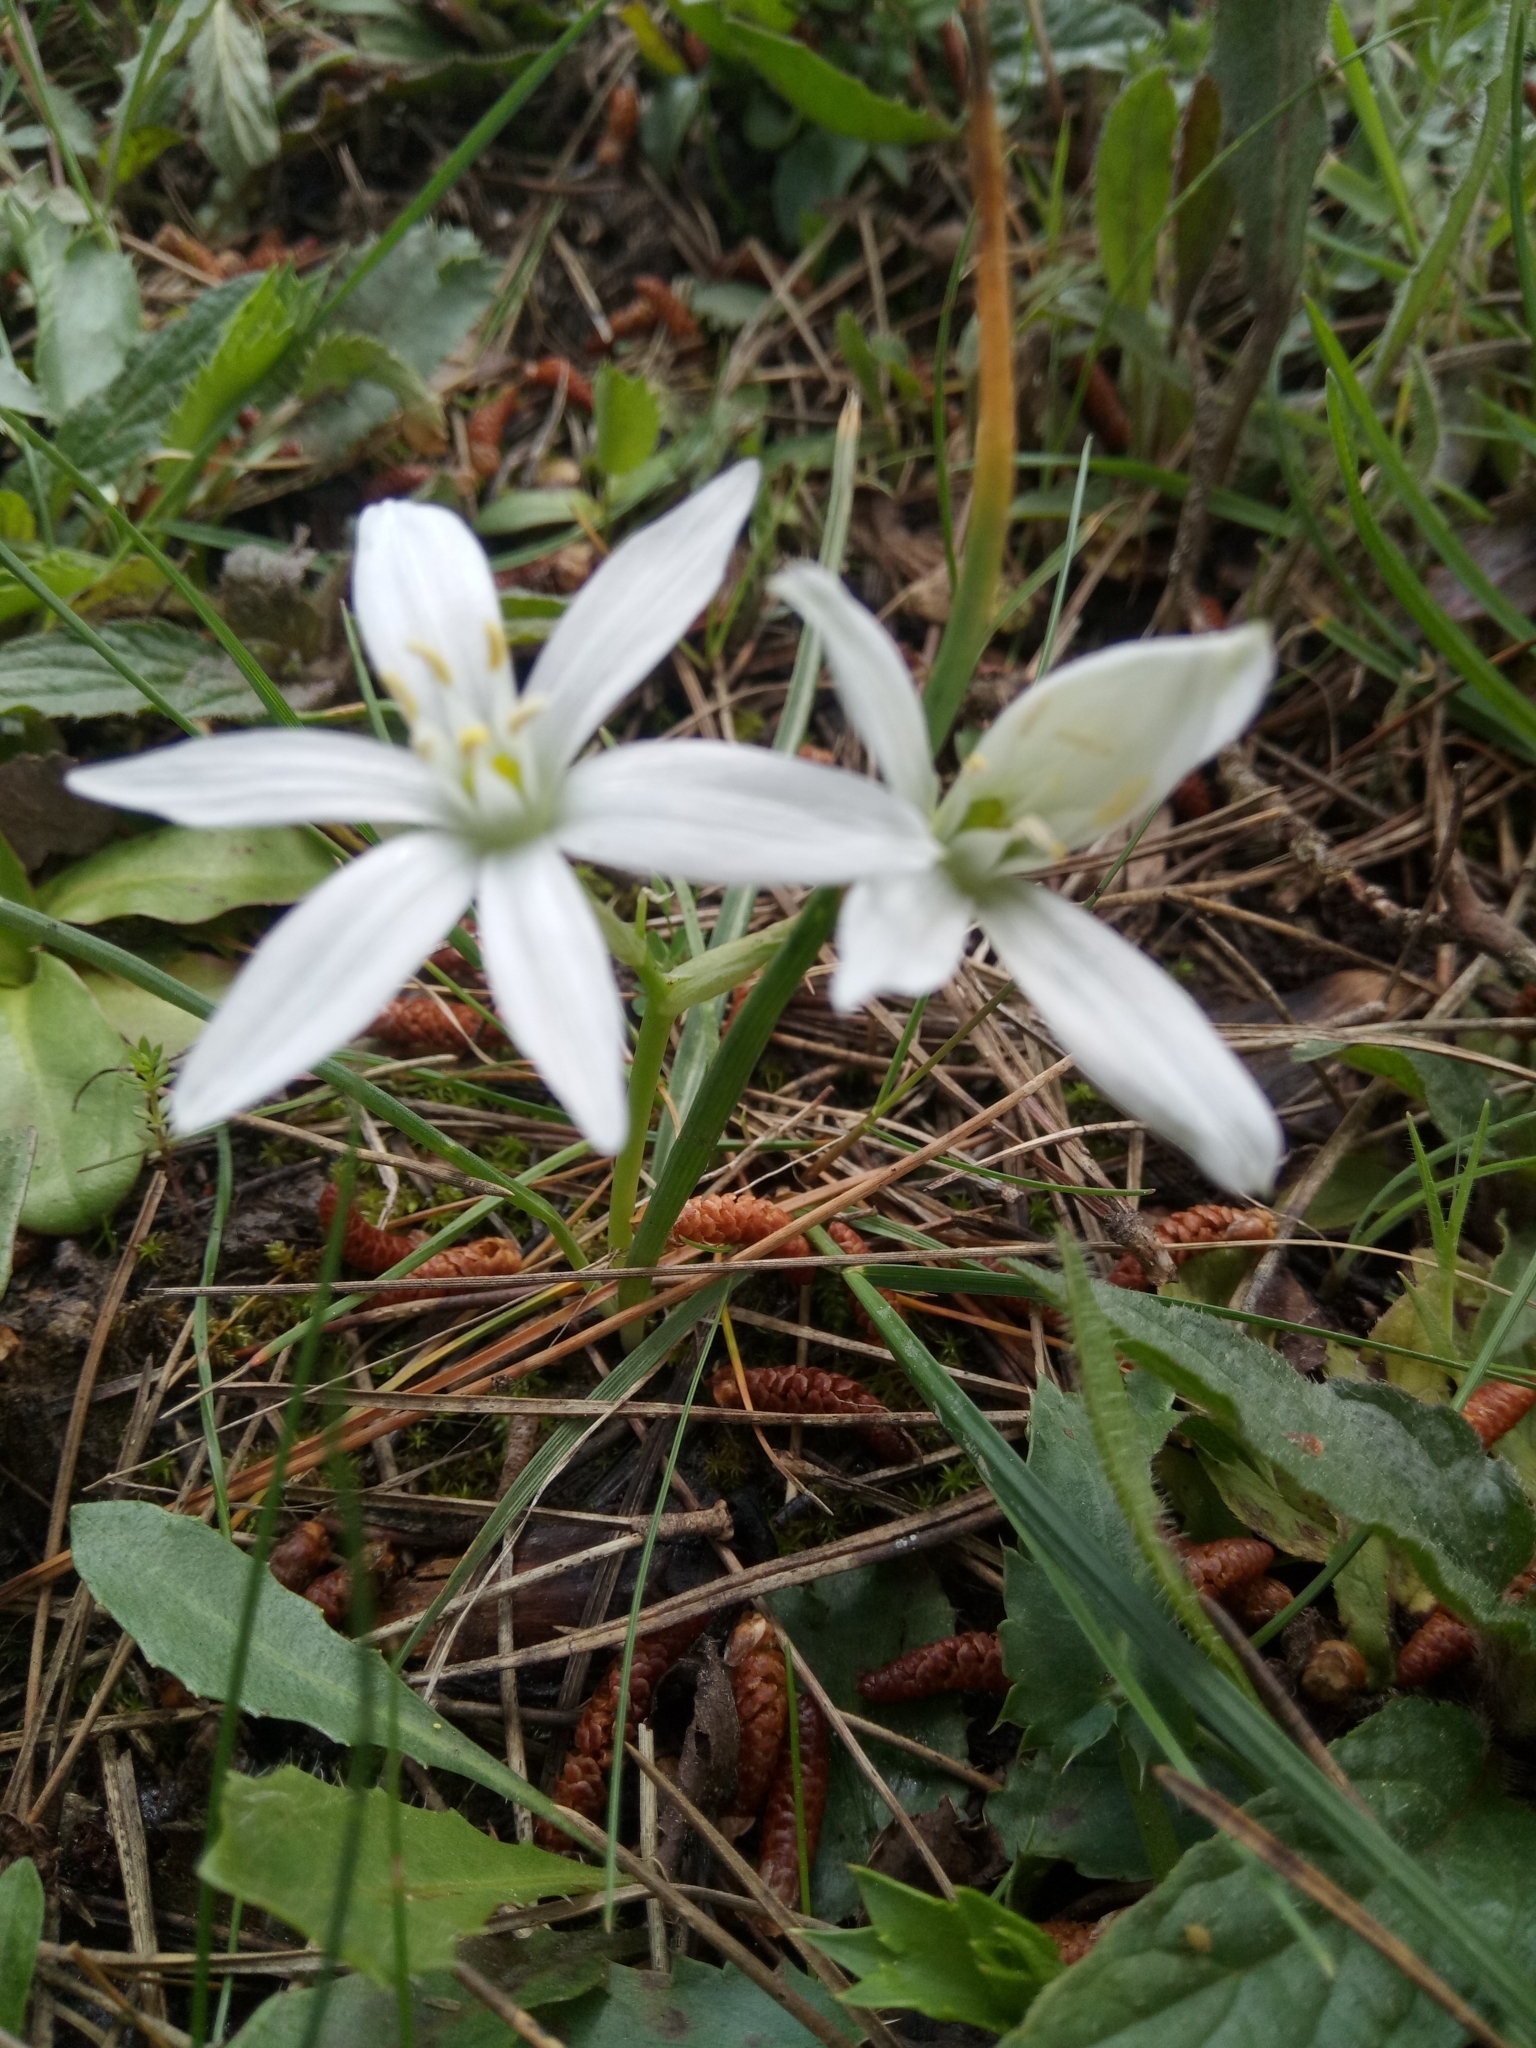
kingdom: Plantae
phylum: Tracheophyta
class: Liliopsida
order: Asparagales
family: Asparagaceae
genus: Ornithogalum
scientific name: Ornithogalum baeticum
